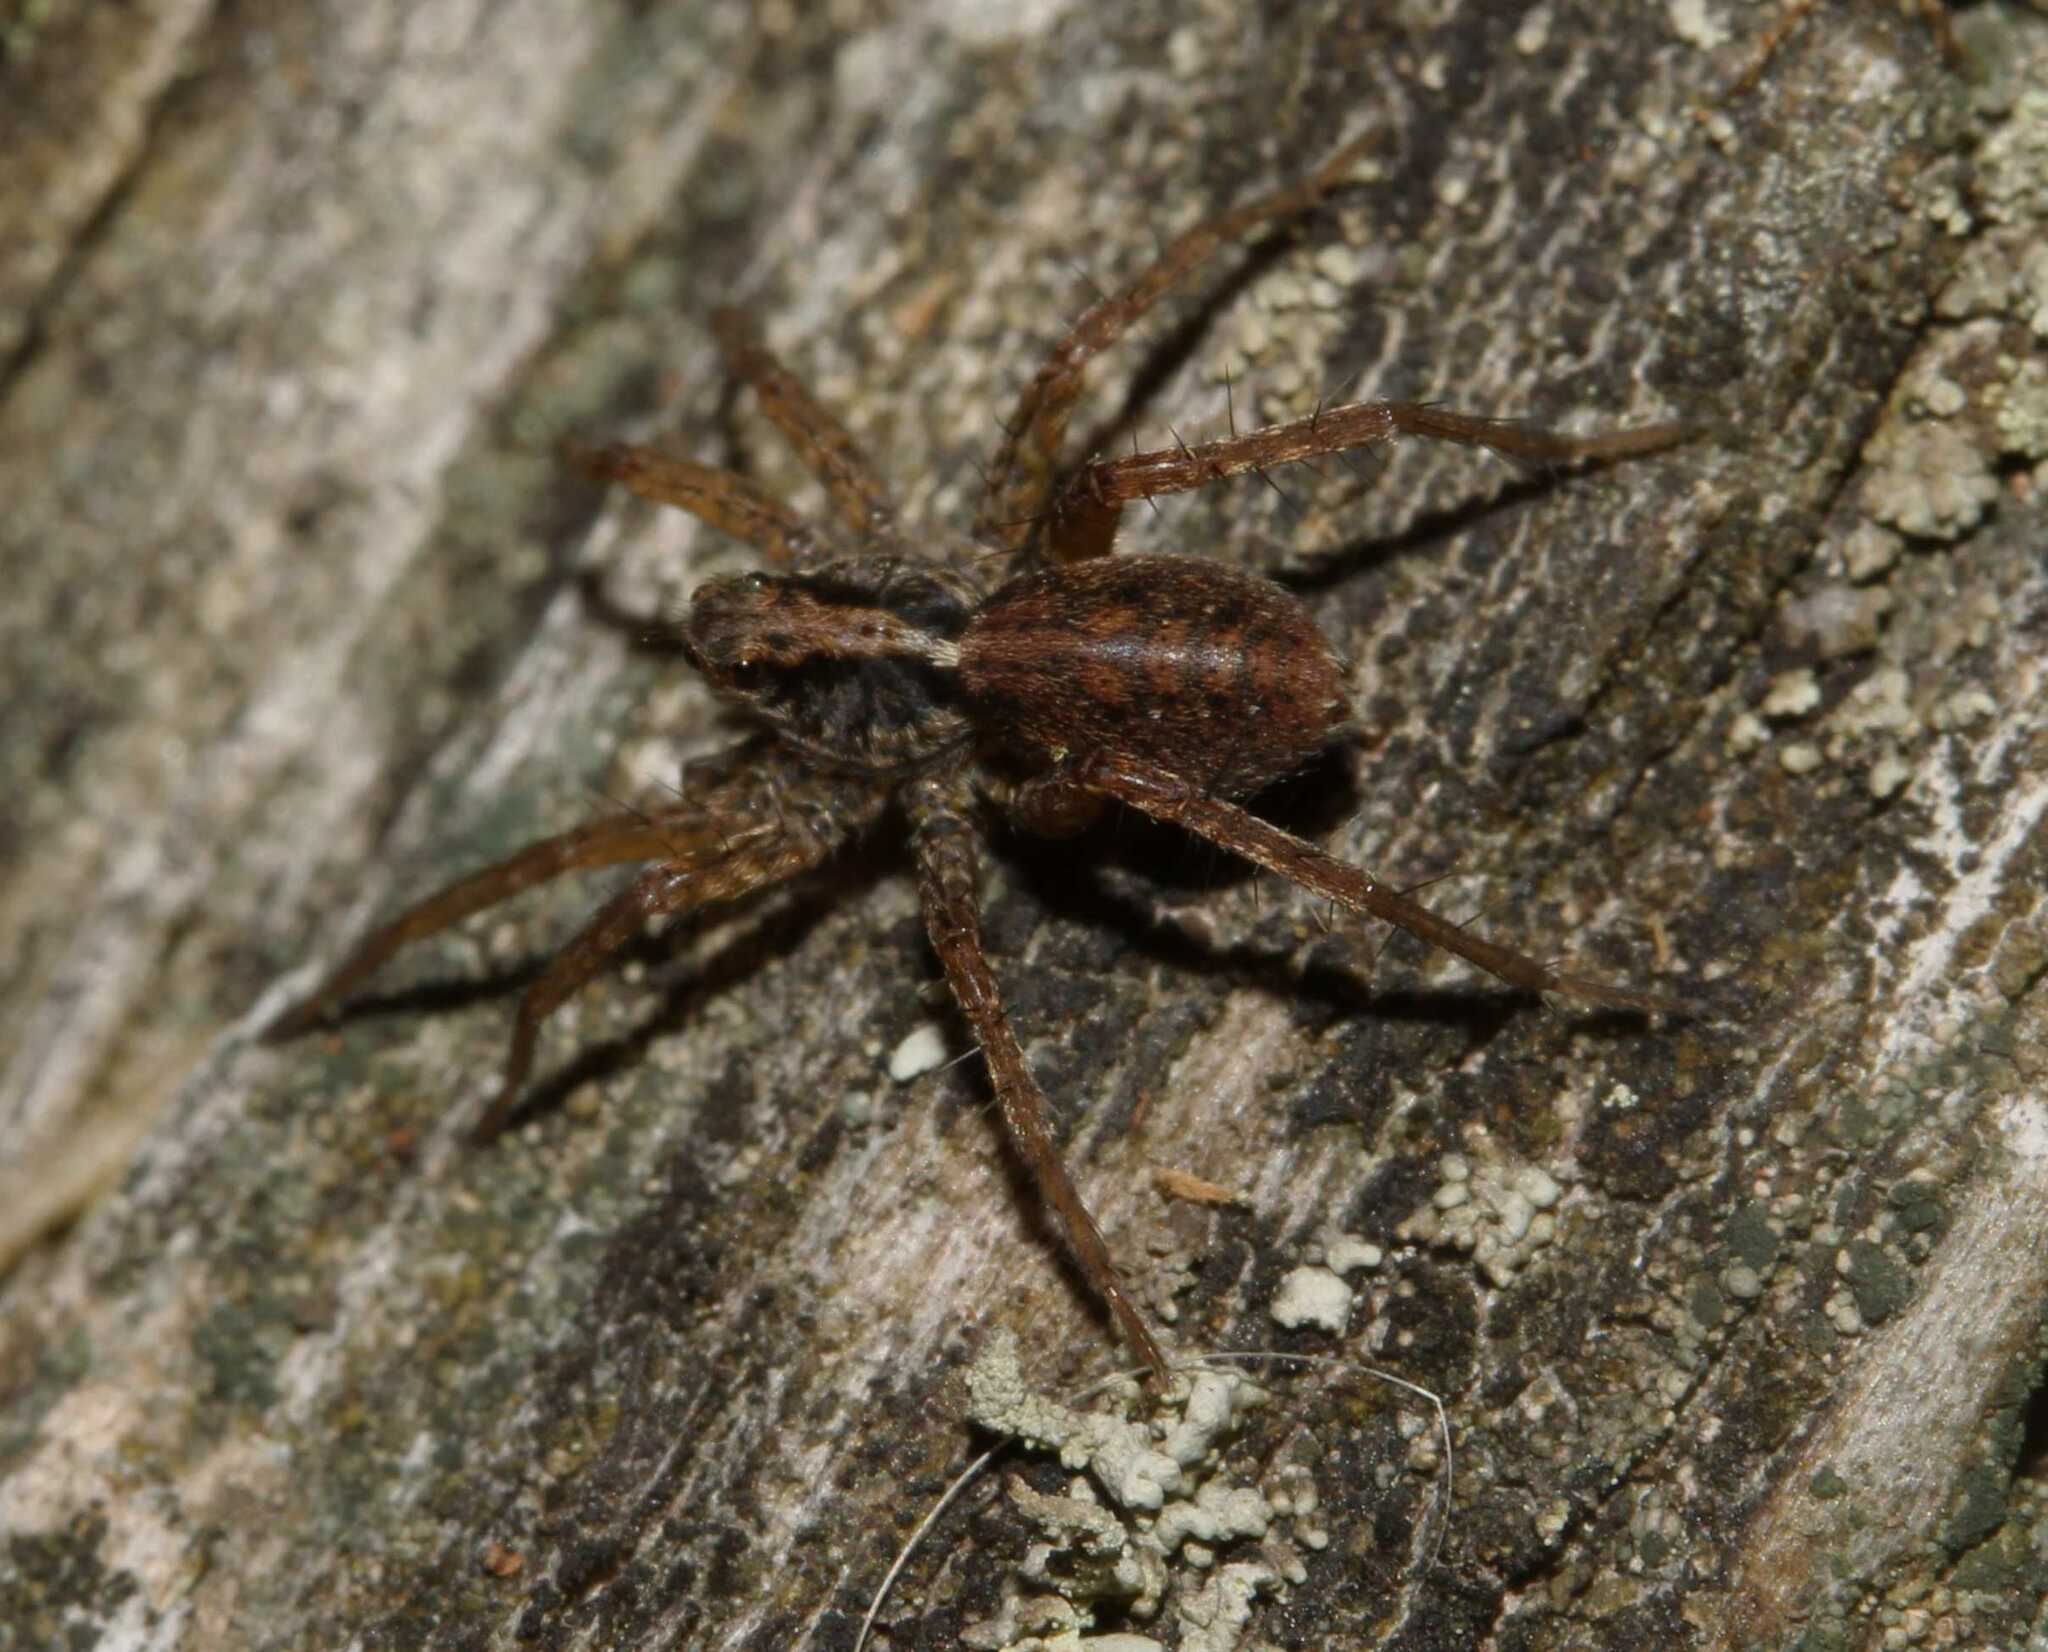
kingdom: Animalia
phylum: Arthropoda
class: Arachnida
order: Araneae
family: Lycosidae
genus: Pardosa
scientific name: Pardosa
